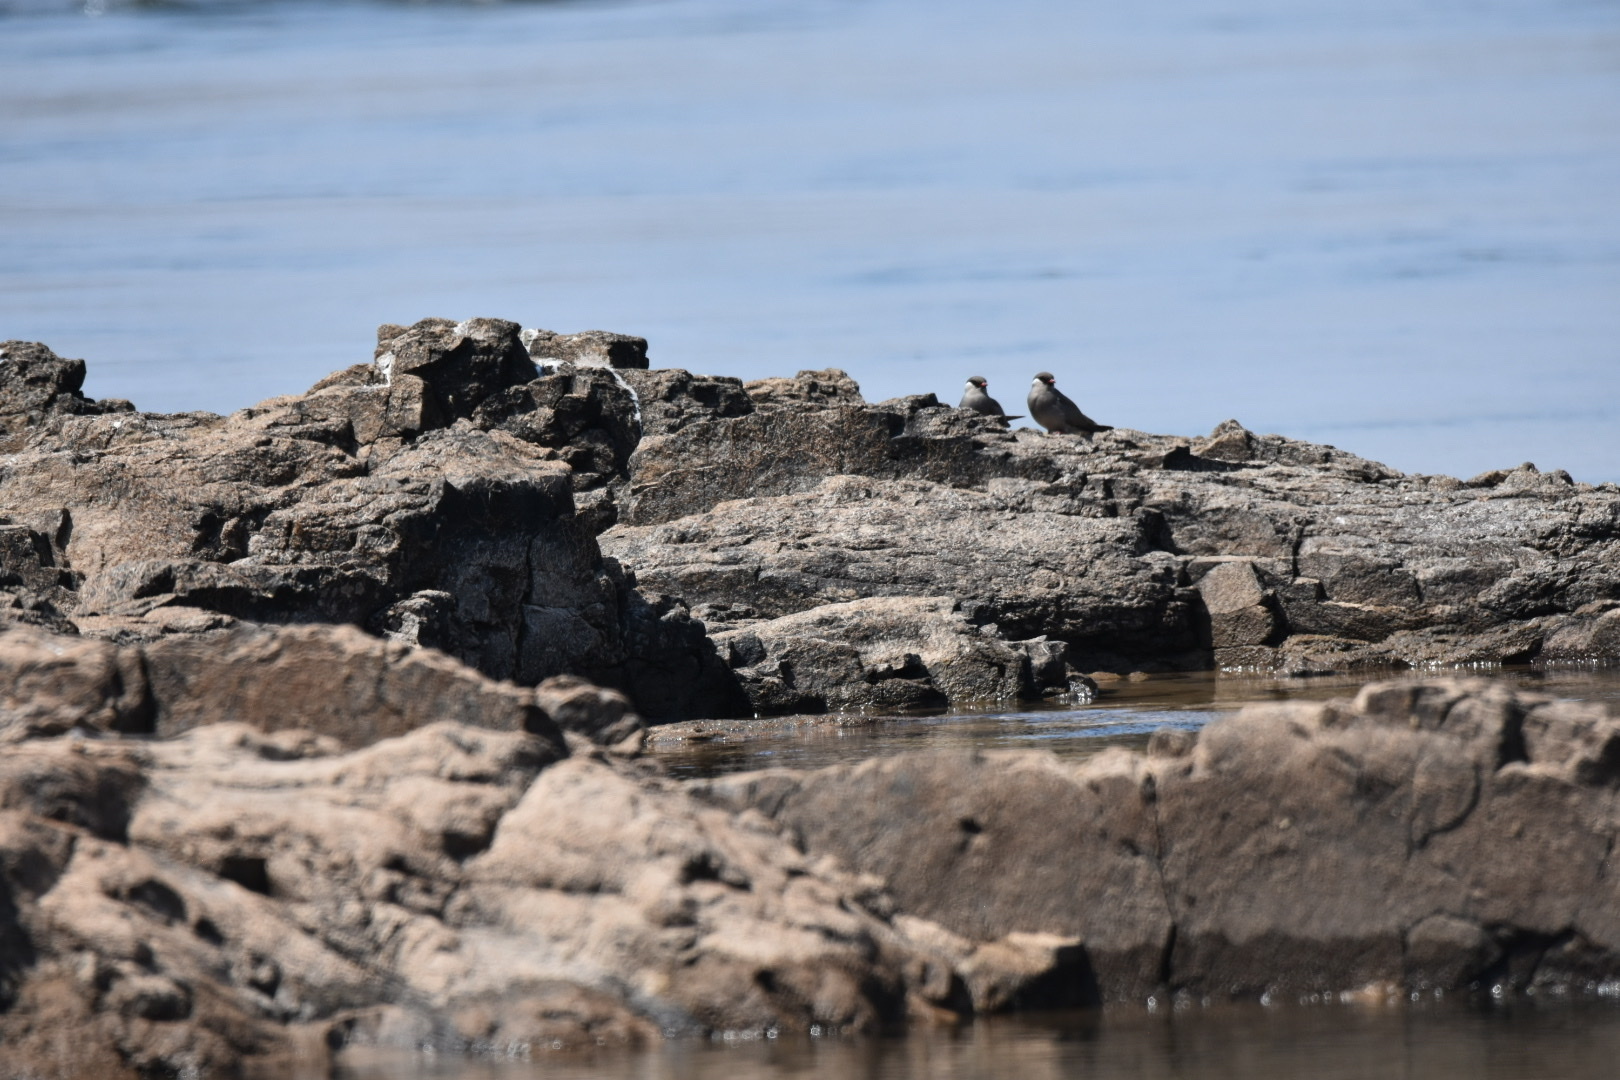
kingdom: Animalia
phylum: Chordata
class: Aves
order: Charadriiformes
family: Glareolidae
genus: Glareola
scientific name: Glareola nuchalis
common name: Rock pratincole
